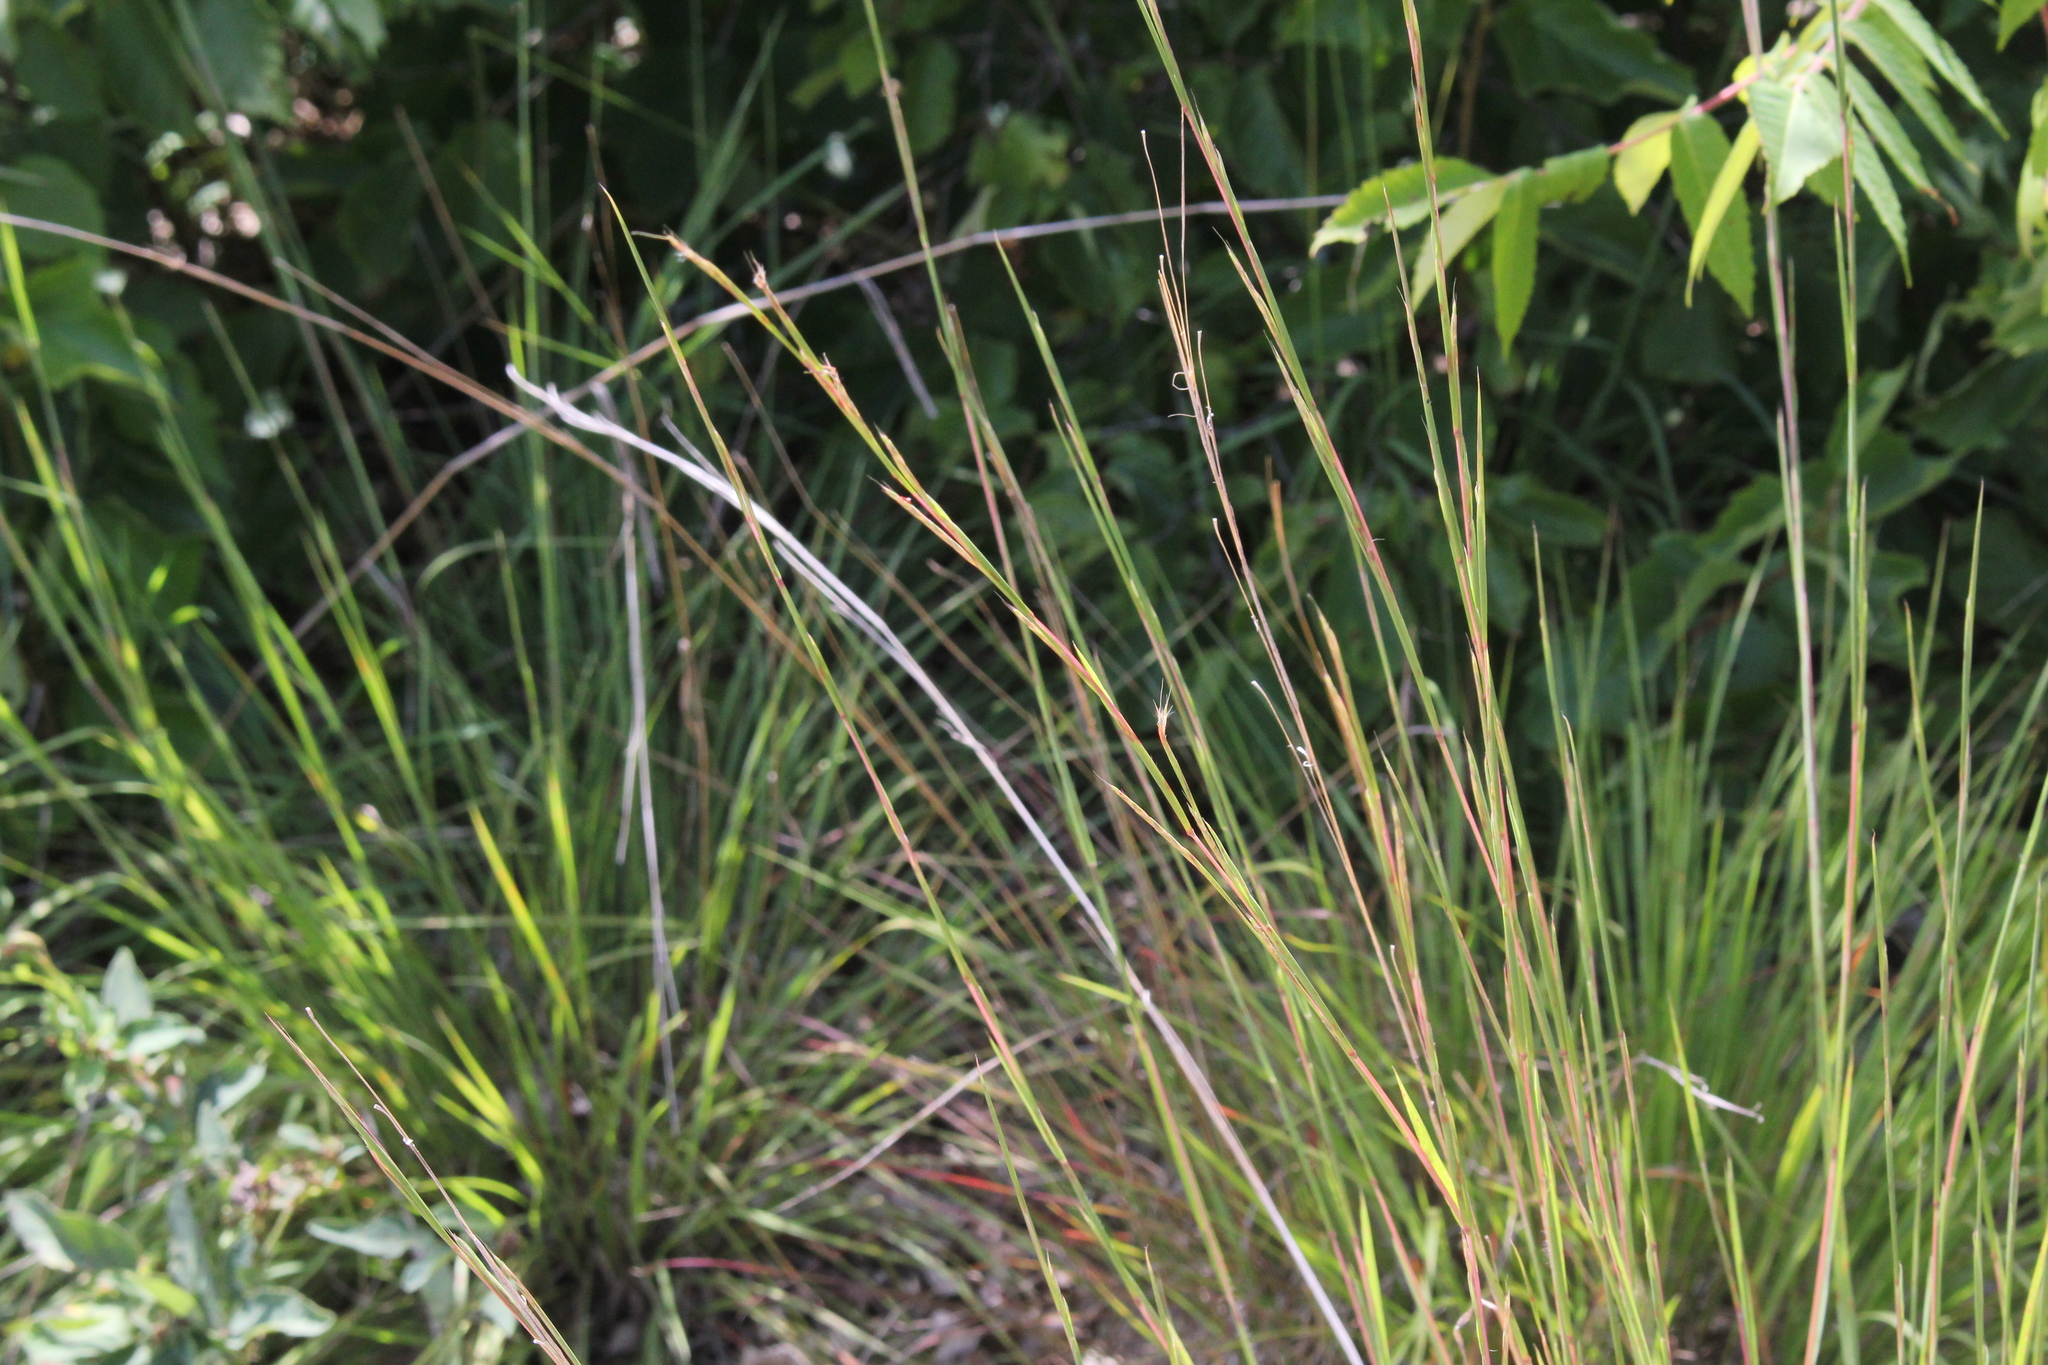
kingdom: Plantae
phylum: Tracheophyta
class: Liliopsida
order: Poales
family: Poaceae
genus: Schizachyrium
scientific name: Schizachyrium scoparium
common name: Little bluestem
